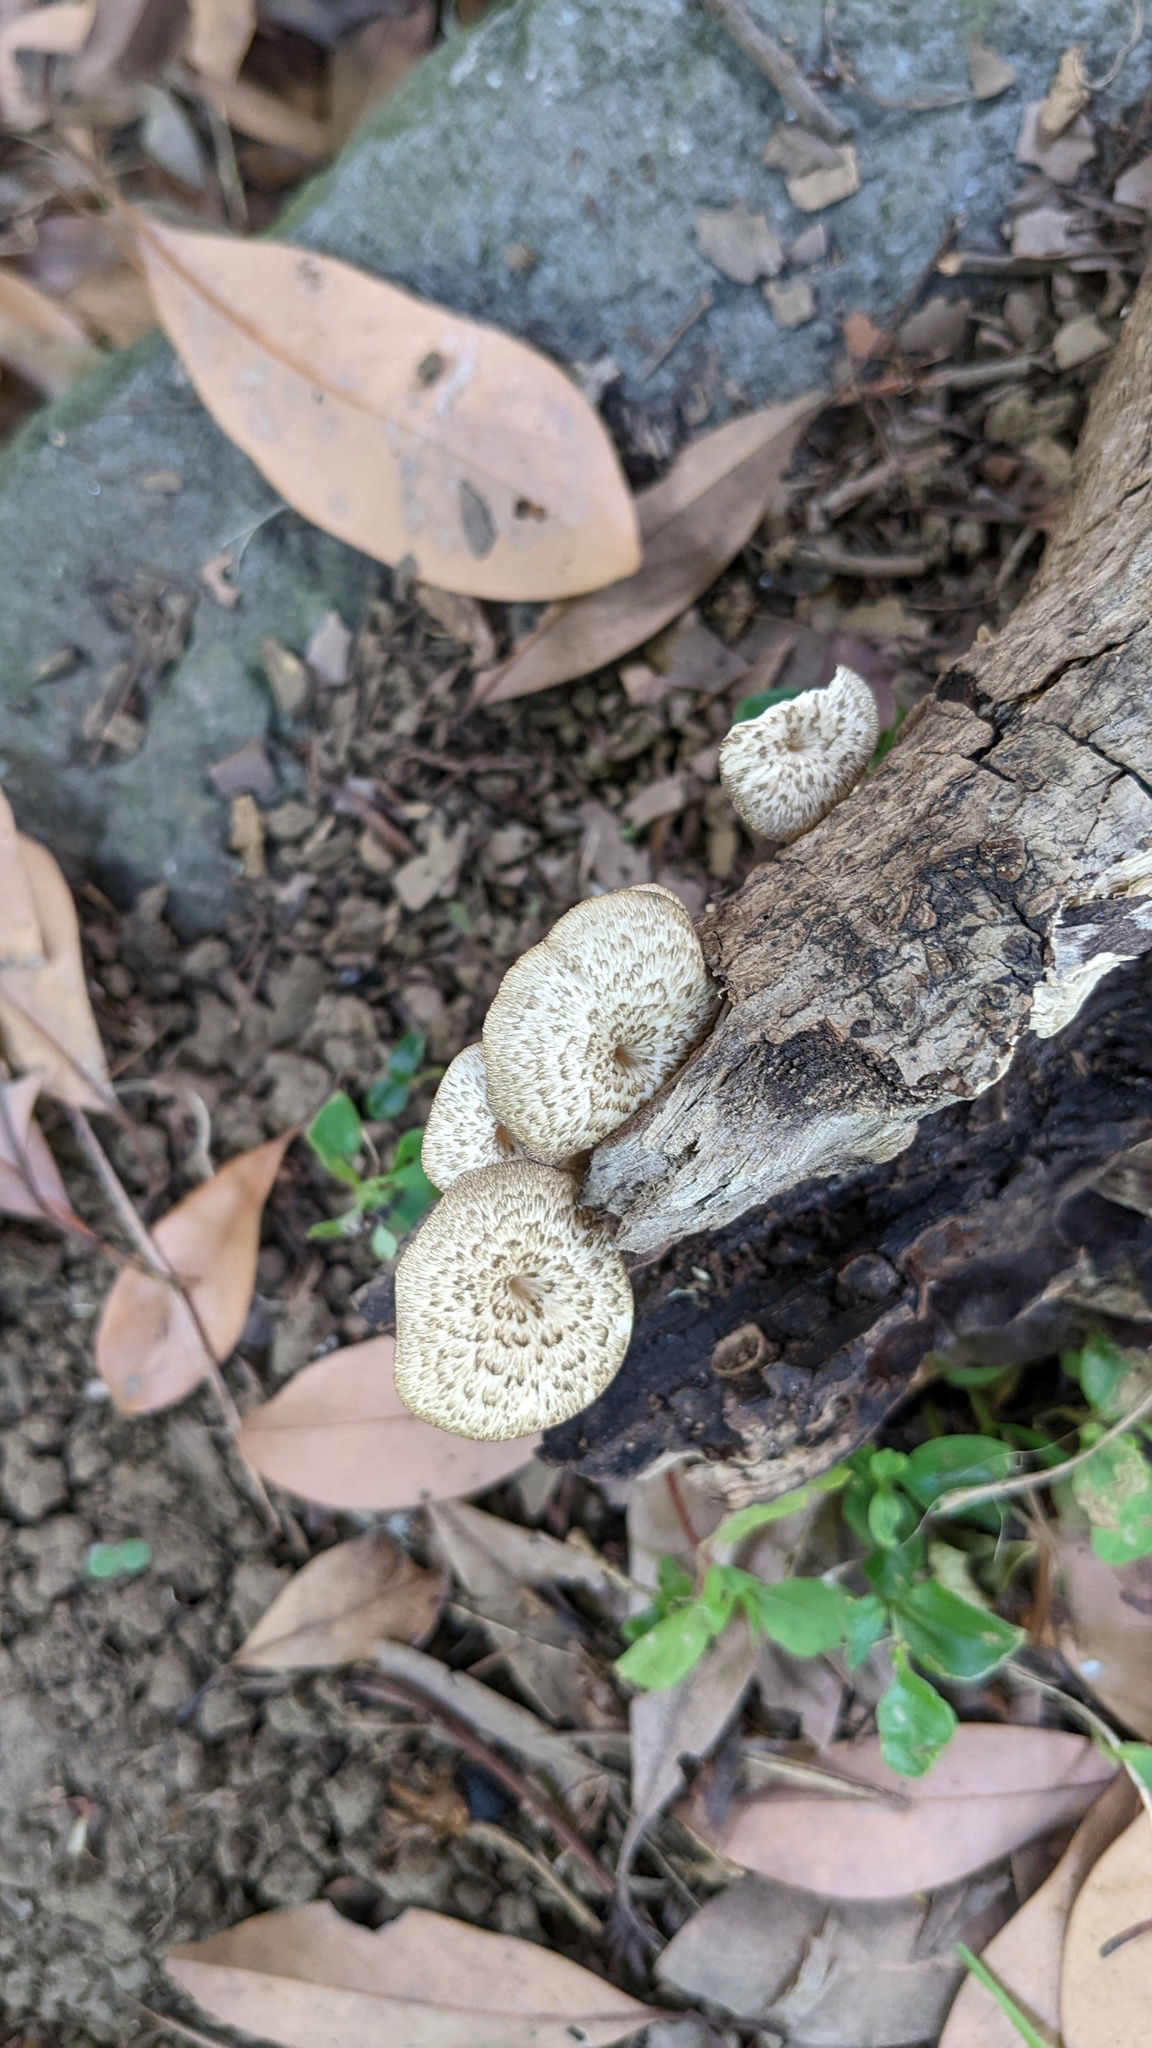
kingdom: Fungi
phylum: Basidiomycota
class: Agaricomycetes
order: Polyporales
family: Polyporaceae
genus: Lentinus
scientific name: Lentinus arcularius
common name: Spring polypore
